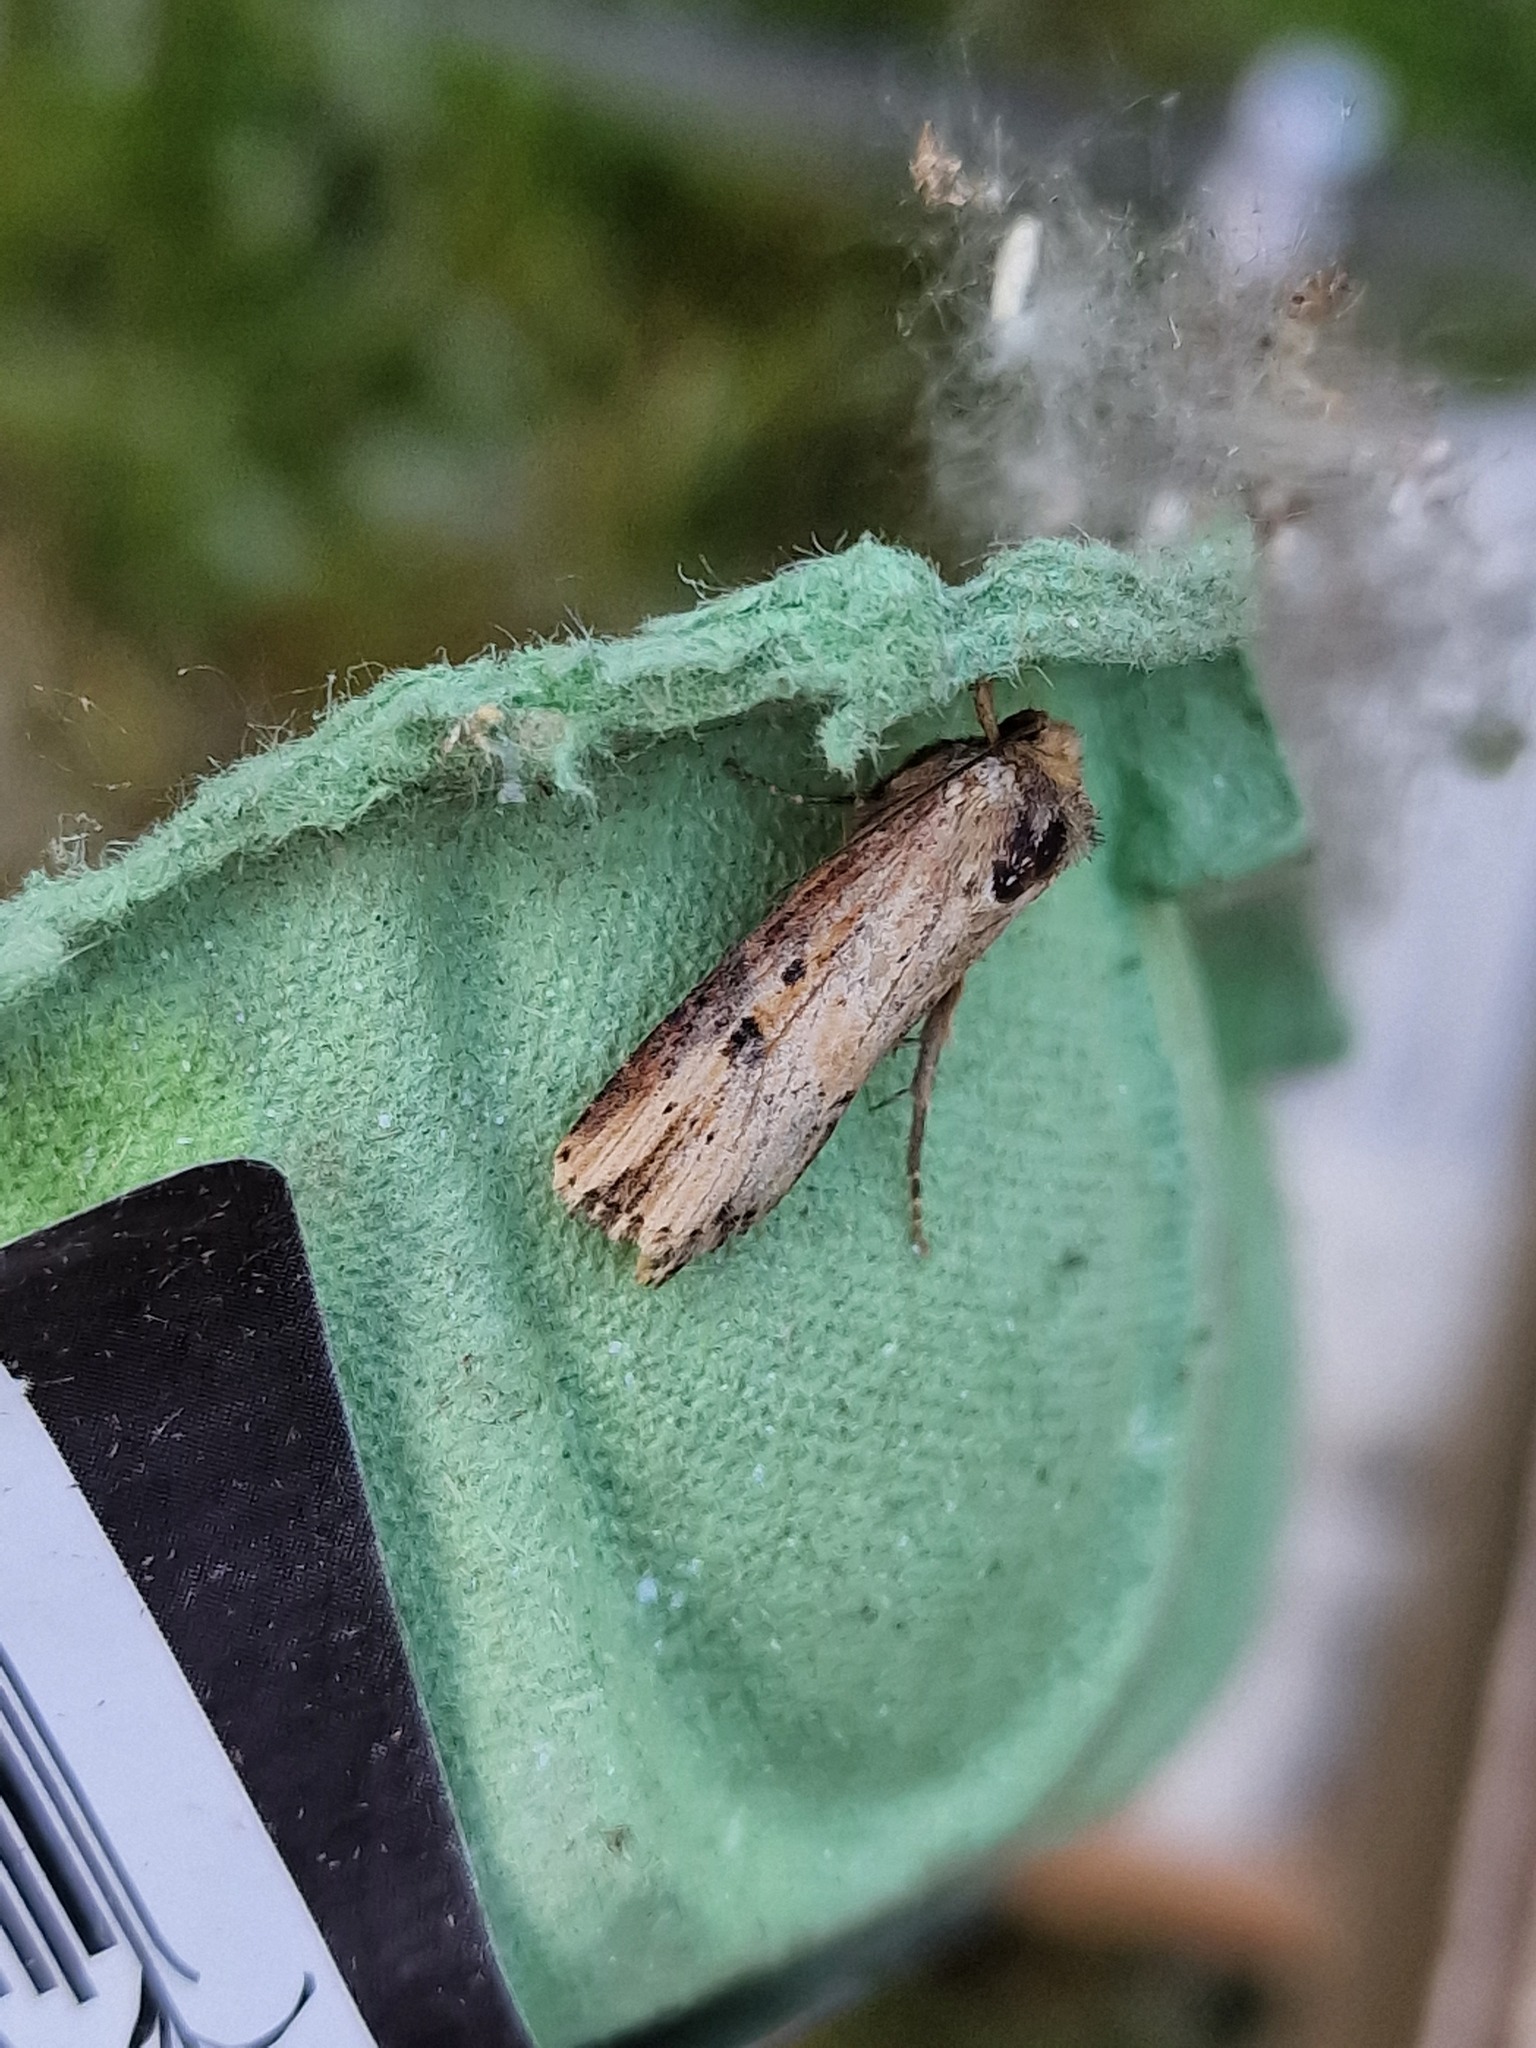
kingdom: Animalia
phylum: Arthropoda
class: Insecta
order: Lepidoptera
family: Noctuidae
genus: Axylia
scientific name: Axylia putris
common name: Flame
